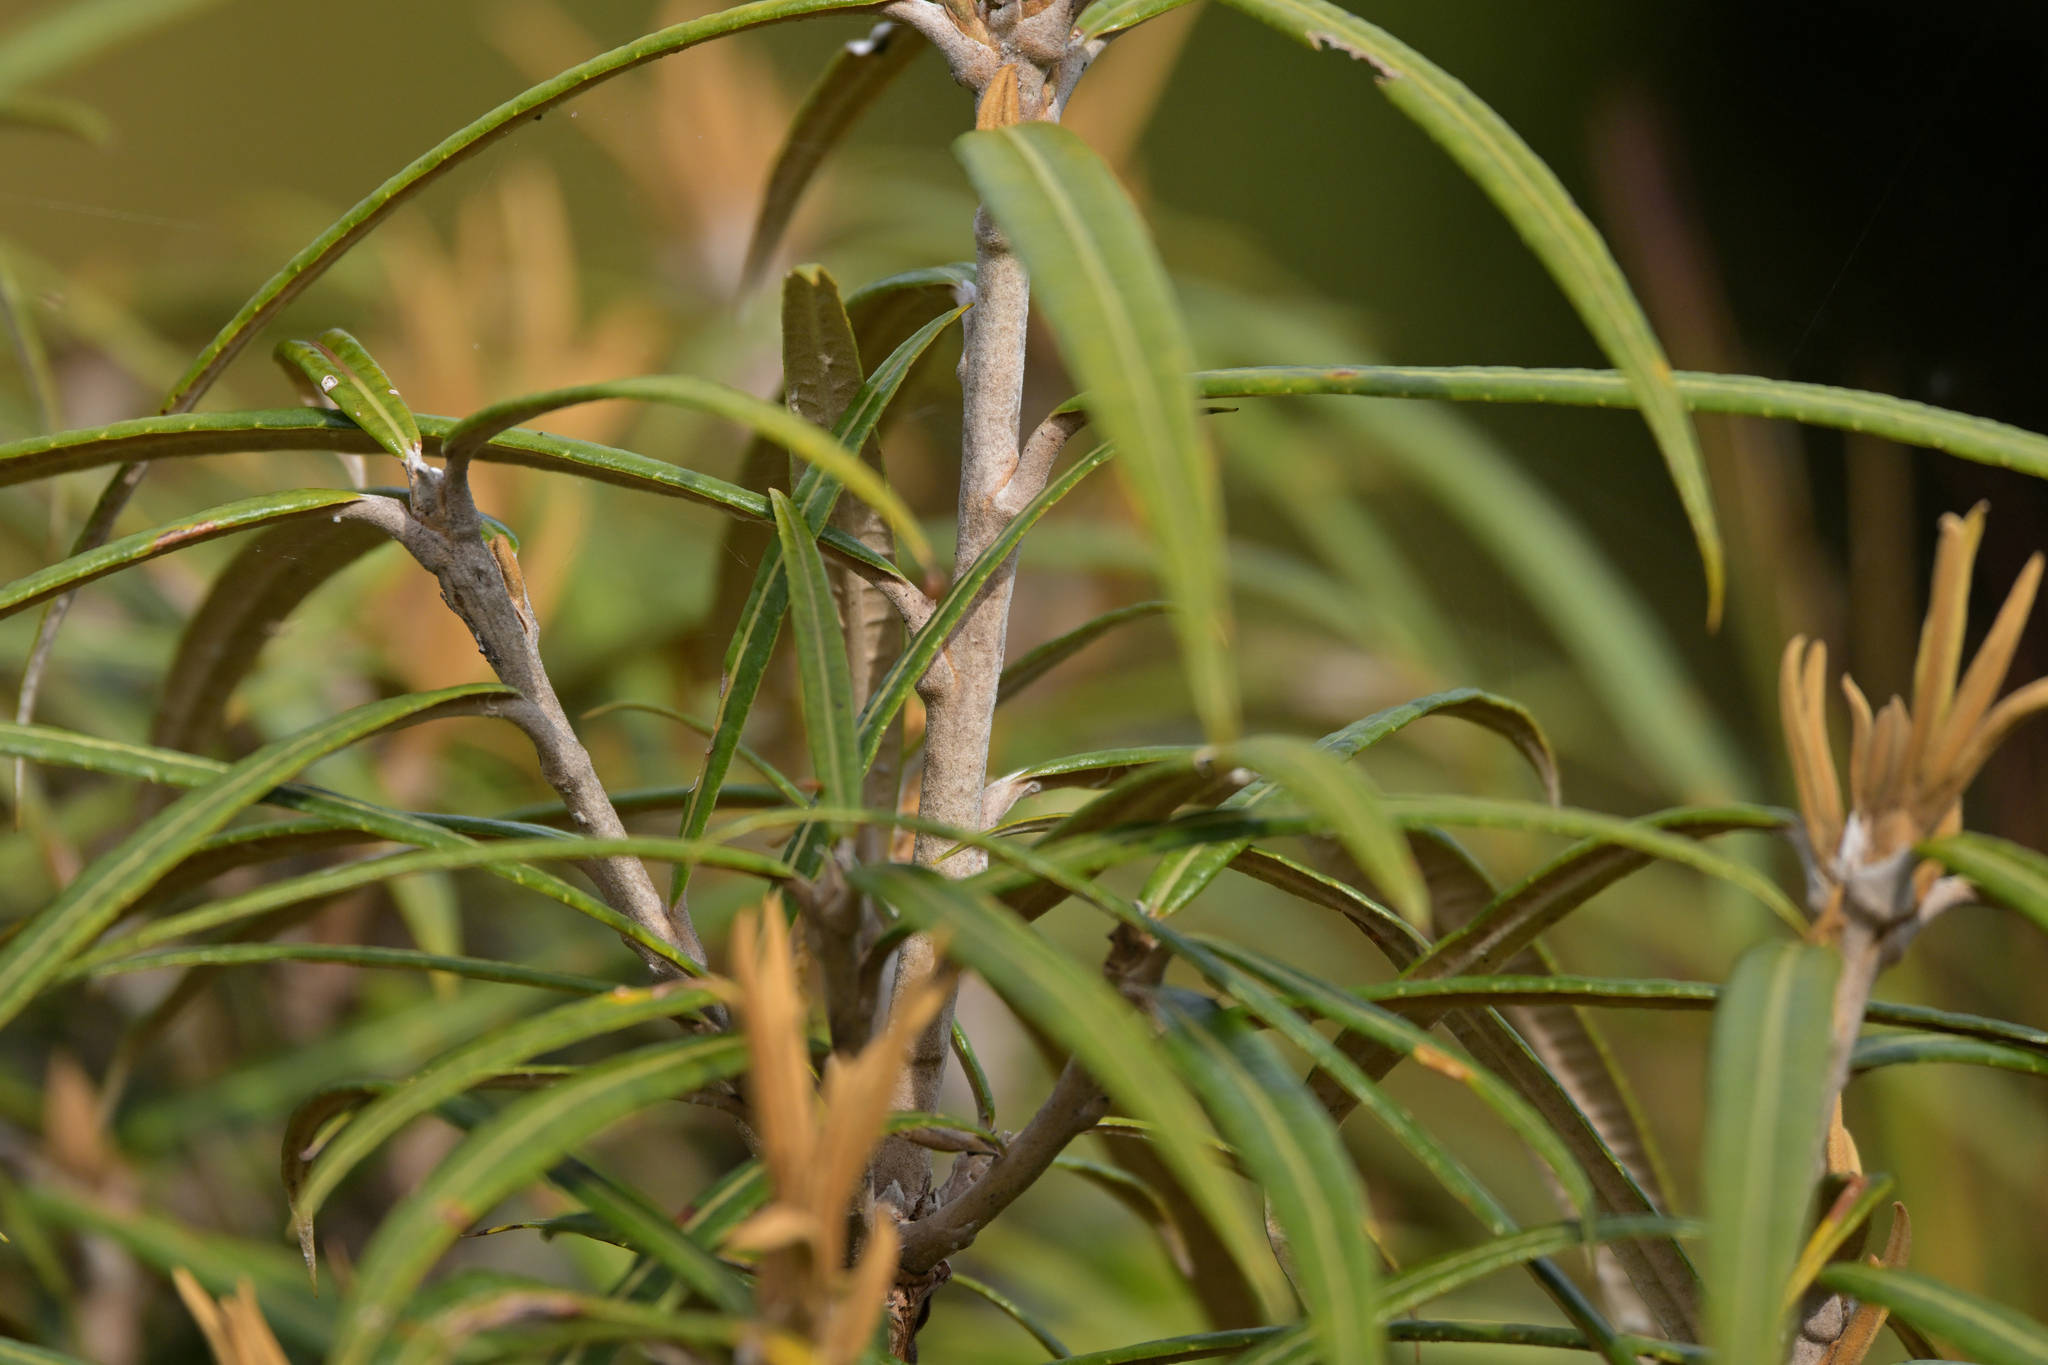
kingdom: Plantae
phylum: Tracheophyta
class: Magnoliopsida
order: Asterales
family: Asteraceae
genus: Olearia
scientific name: Olearia lacunosa
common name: Lancewood tree daisy
